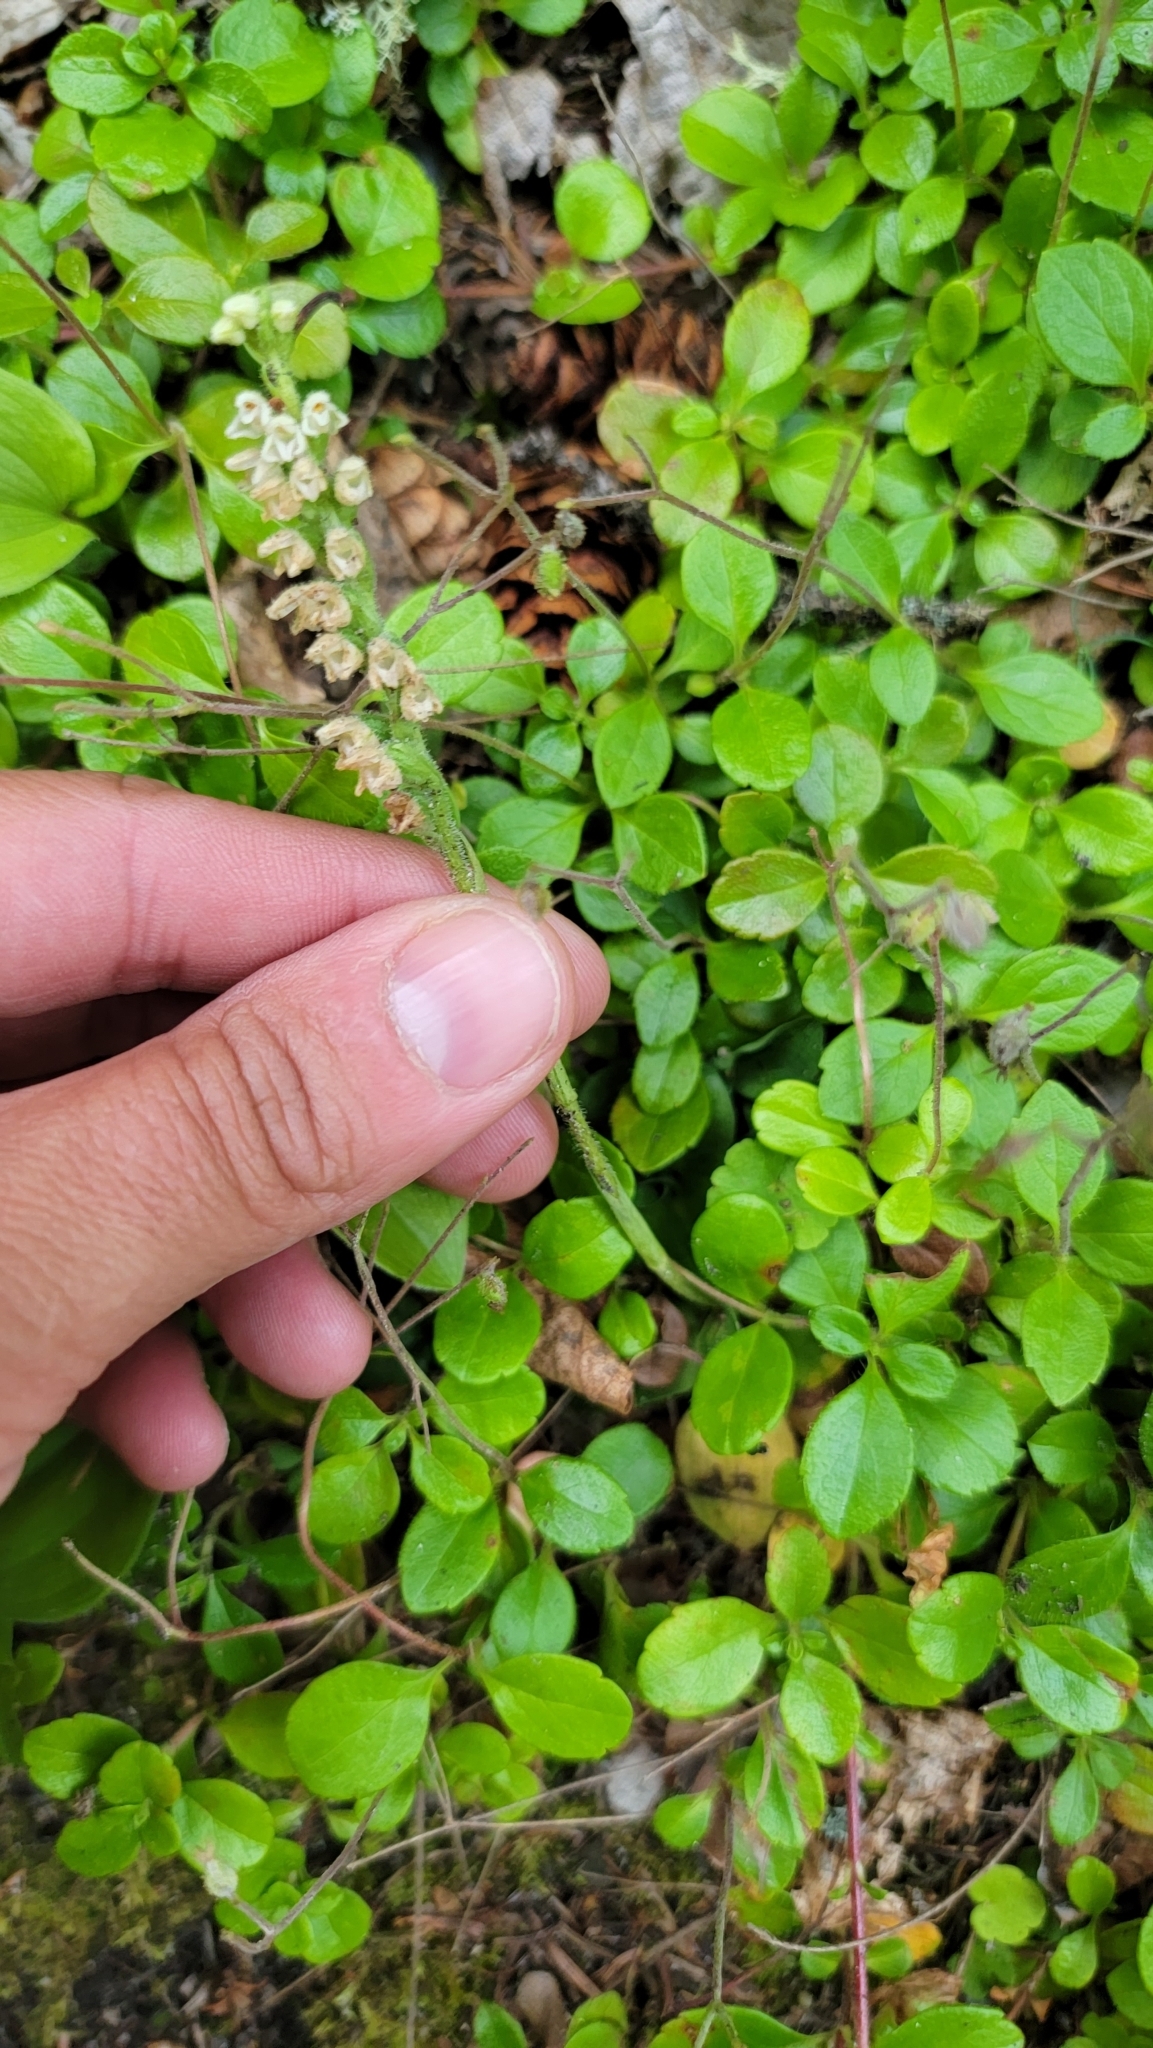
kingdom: Plantae
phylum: Tracheophyta
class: Liliopsida
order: Asparagales
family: Orchidaceae
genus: Goodyera
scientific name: Goodyera repens
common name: Creeping lady's-tresses
